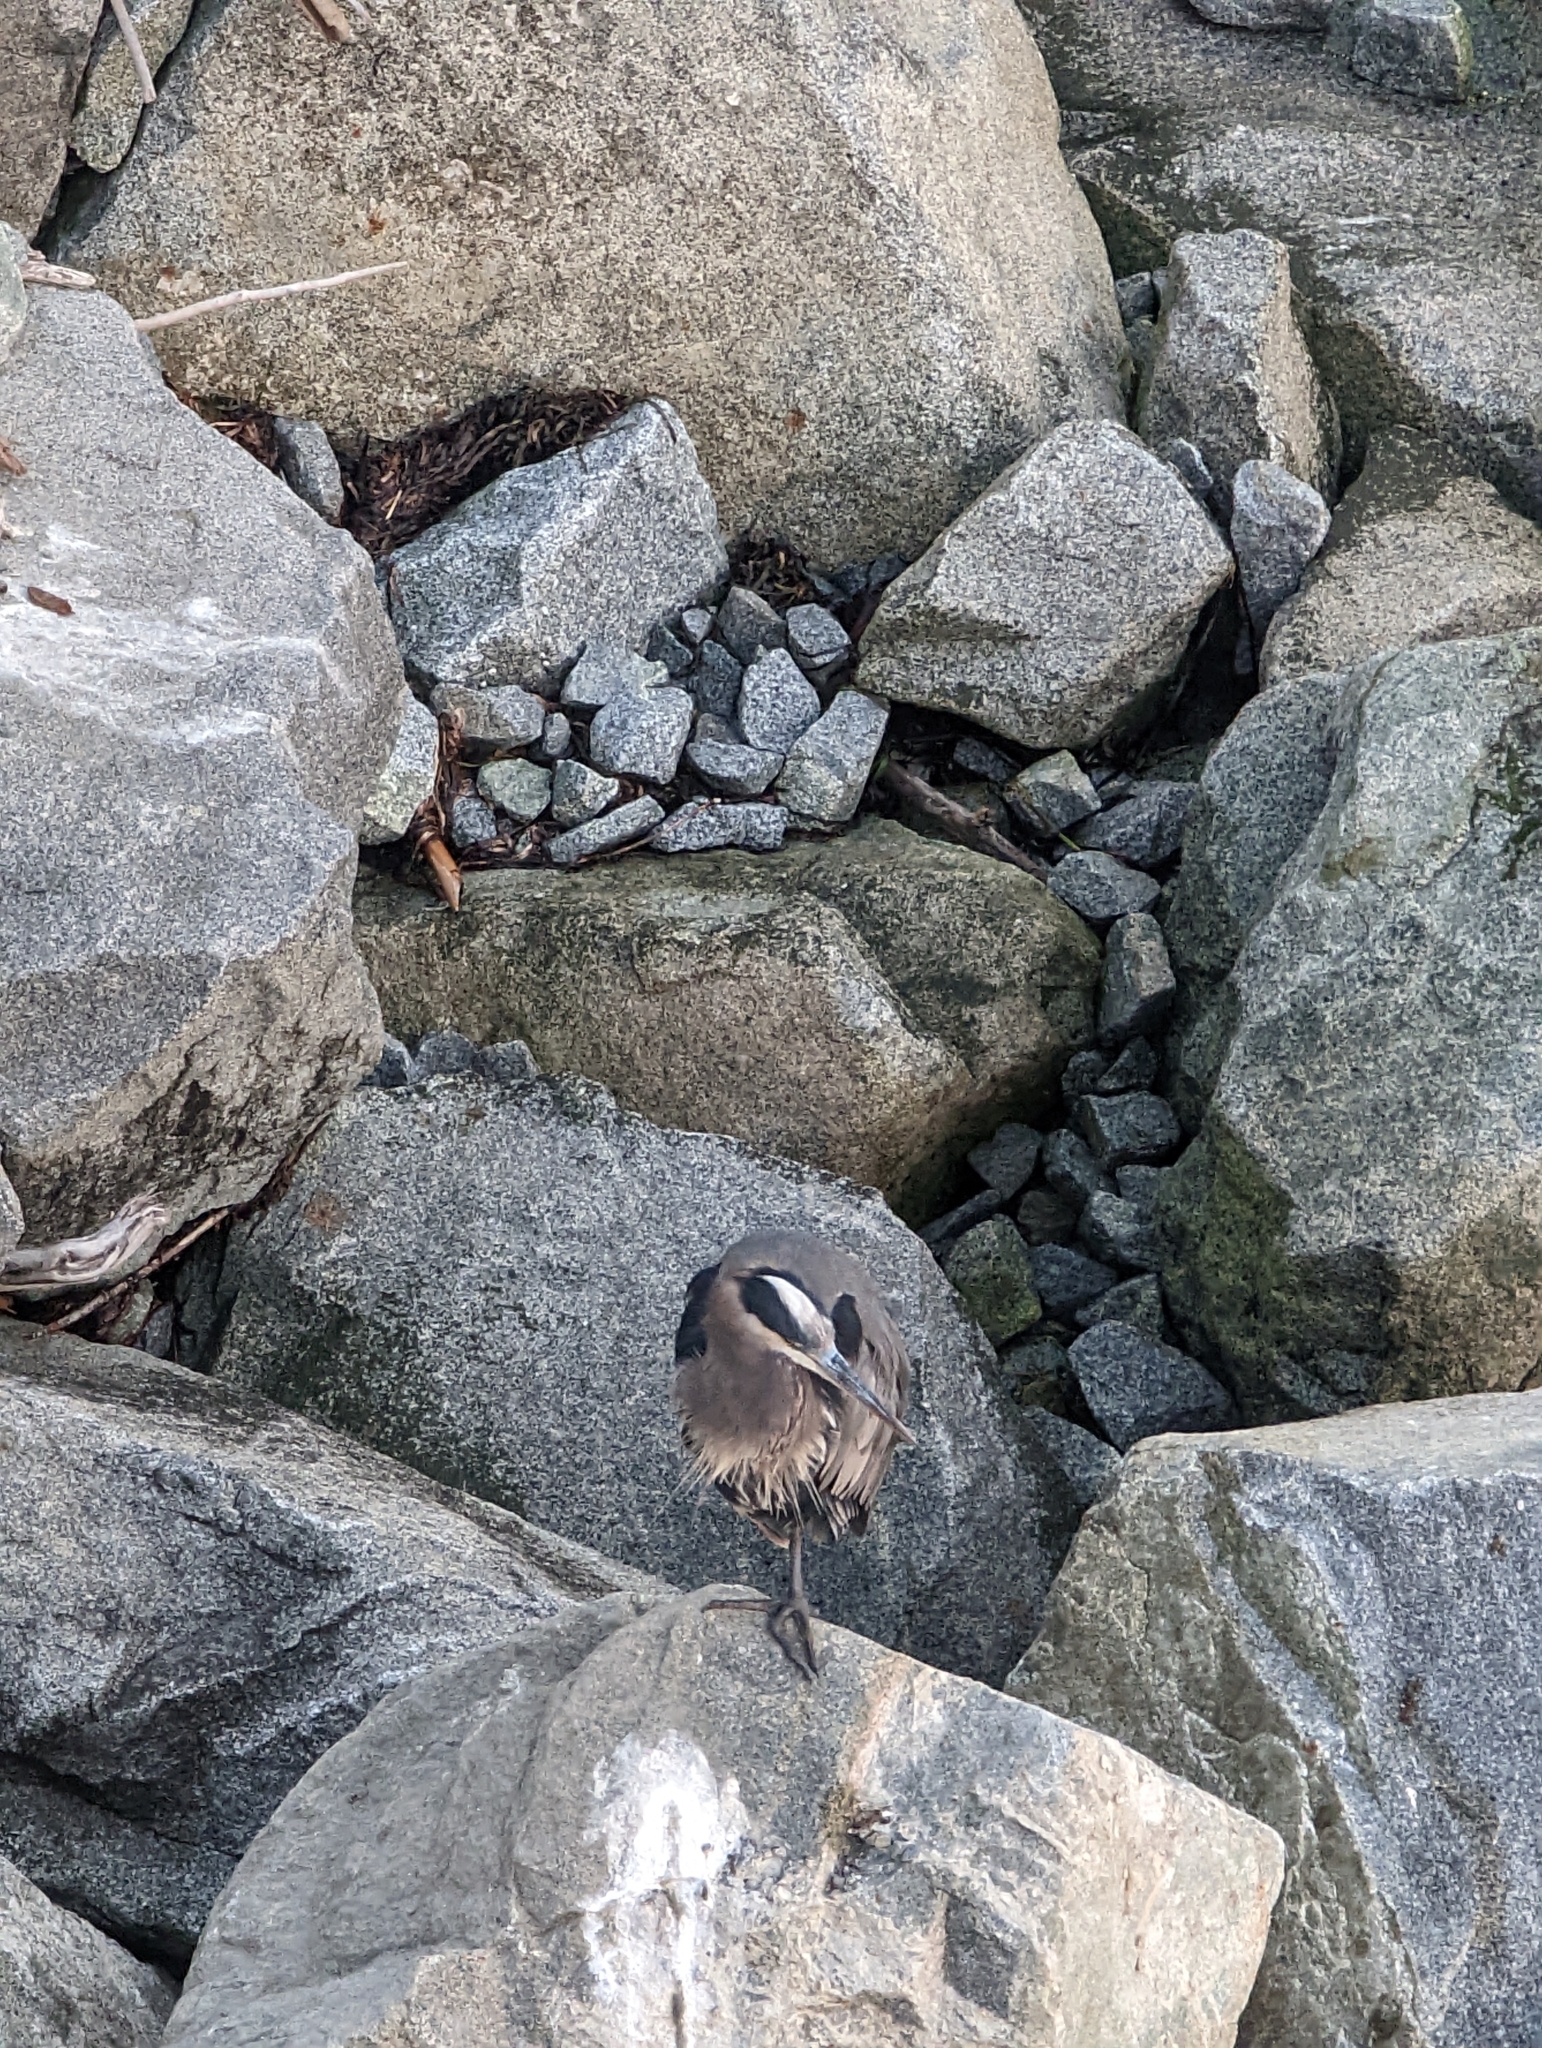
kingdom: Animalia
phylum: Chordata
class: Aves
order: Pelecaniformes
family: Ardeidae
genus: Ardea
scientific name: Ardea herodias
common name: Great blue heron
